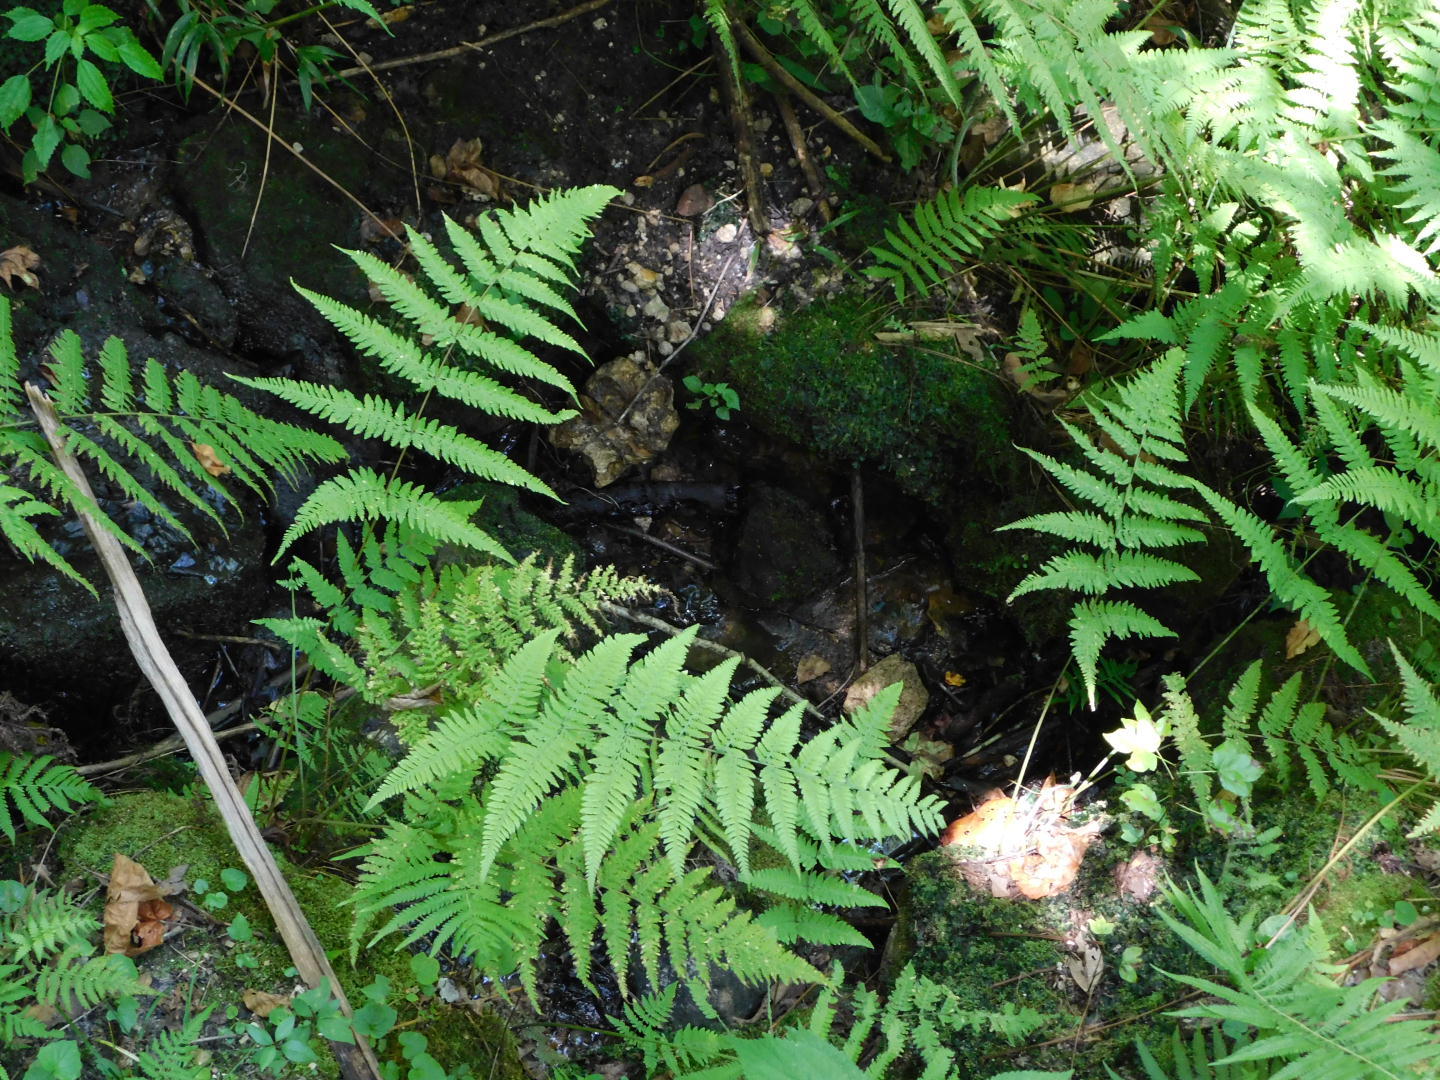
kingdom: Plantae
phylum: Tracheophyta
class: Polypodiopsida
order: Polypodiales
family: Thelypteridaceae
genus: Macrothelypteris
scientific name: Macrothelypteris torresiana
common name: Swordfern
